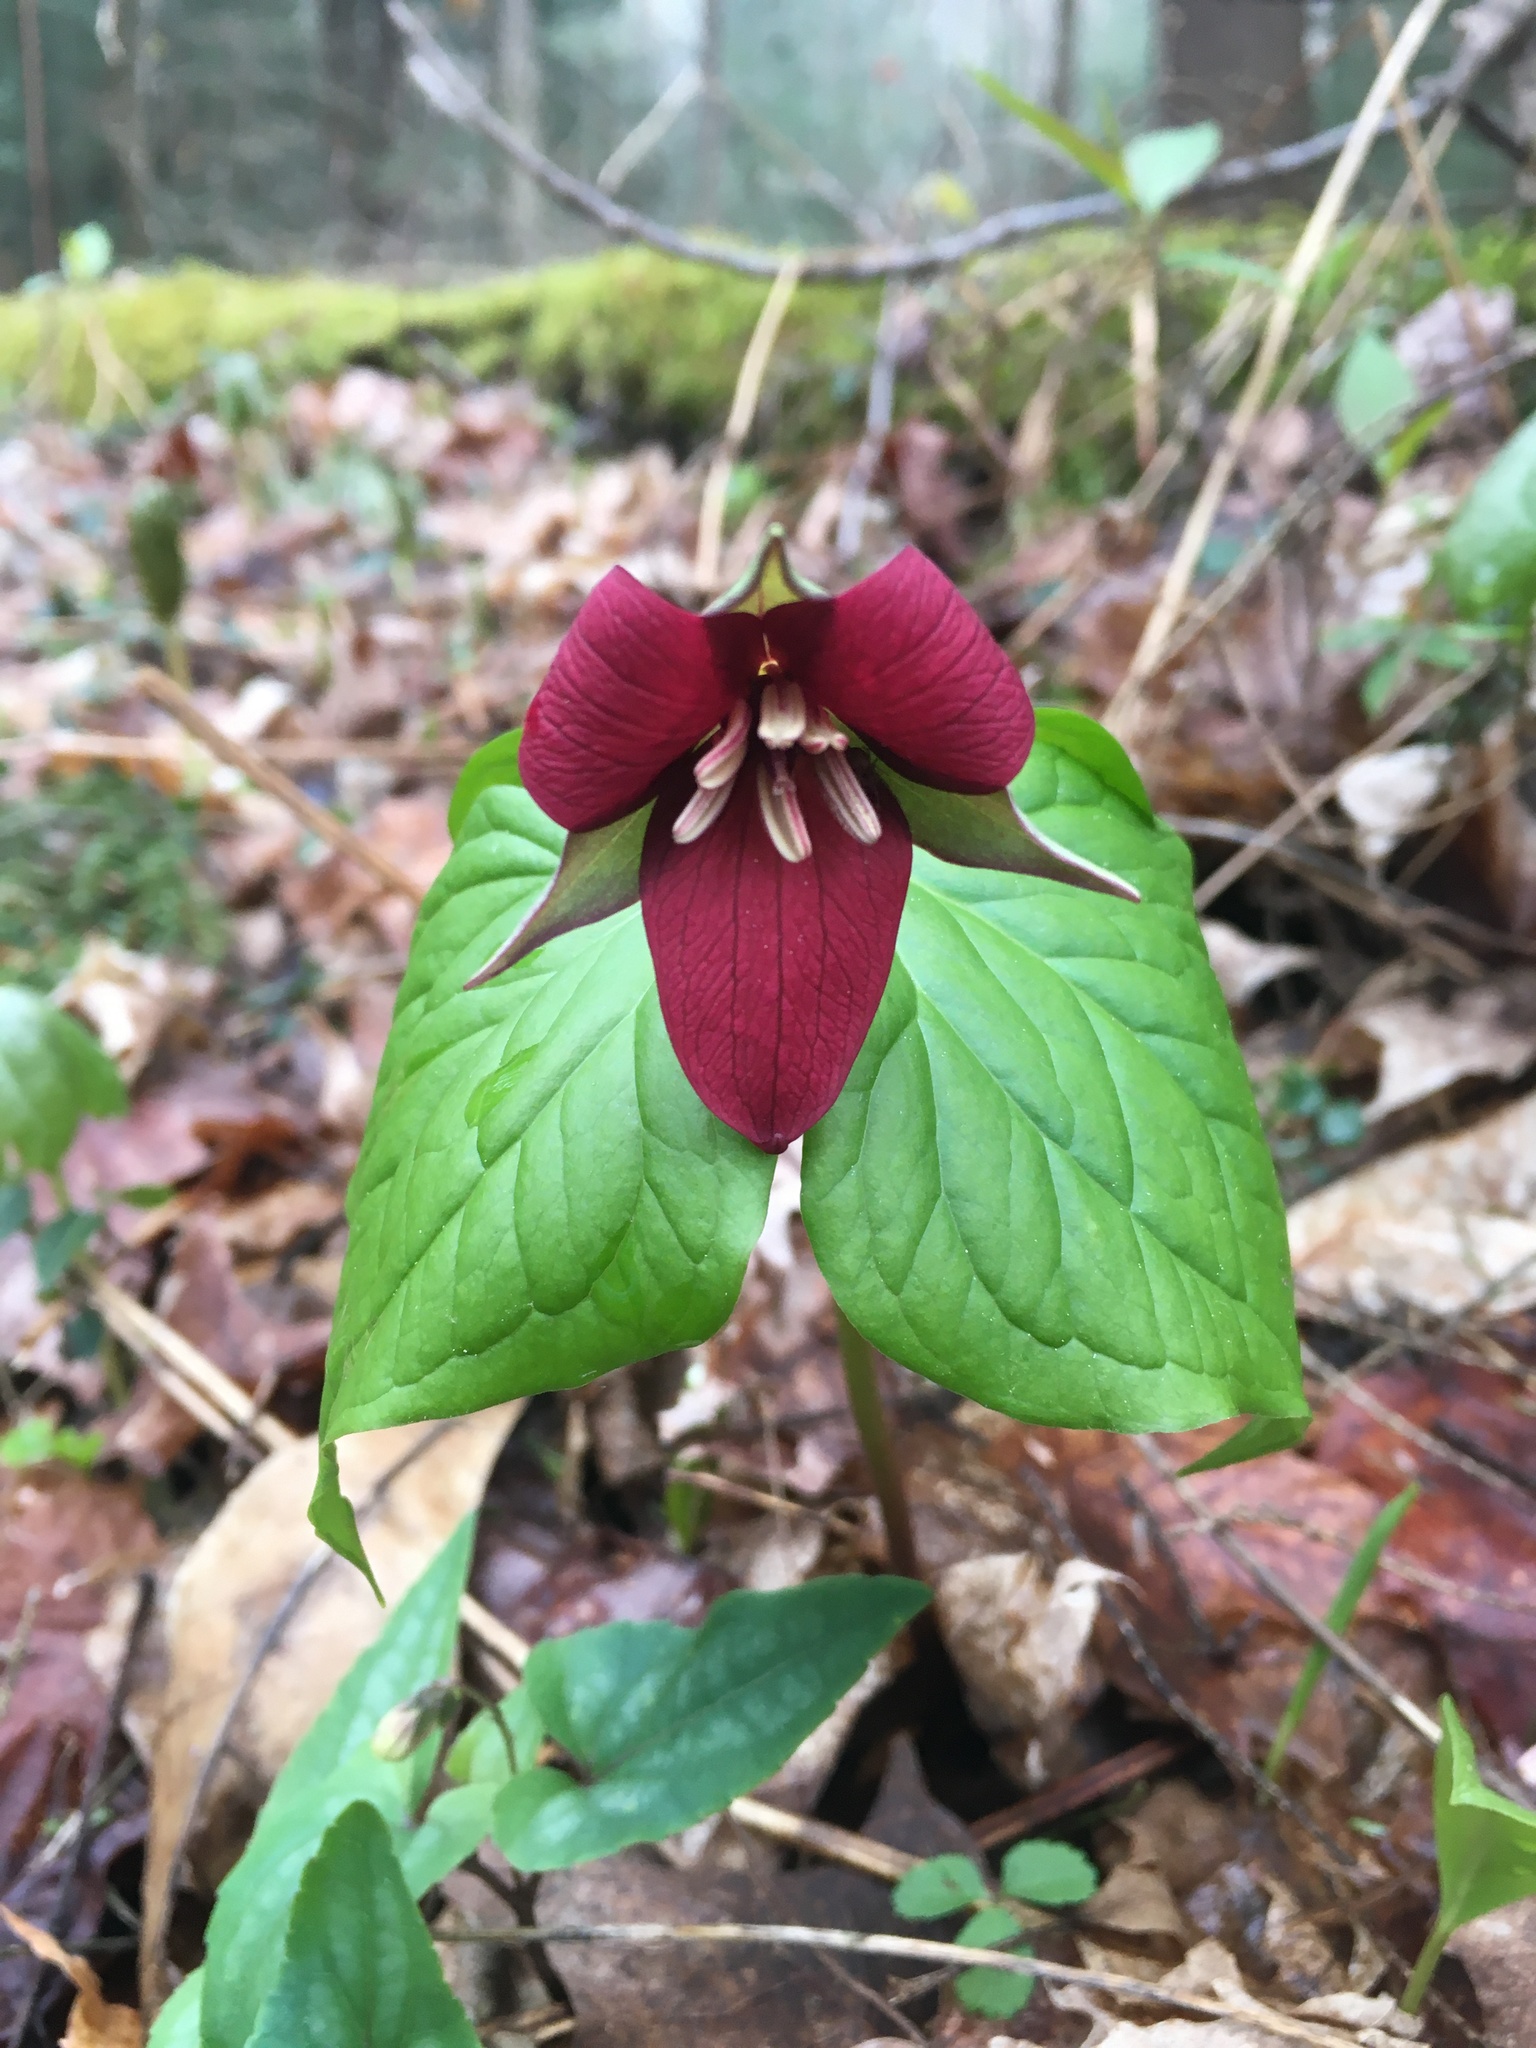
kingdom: Plantae
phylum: Tracheophyta
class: Liliopsida
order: Liliales
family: Melanthiaceae
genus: Trillium
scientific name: Trillium erectum
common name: Purple trillium
